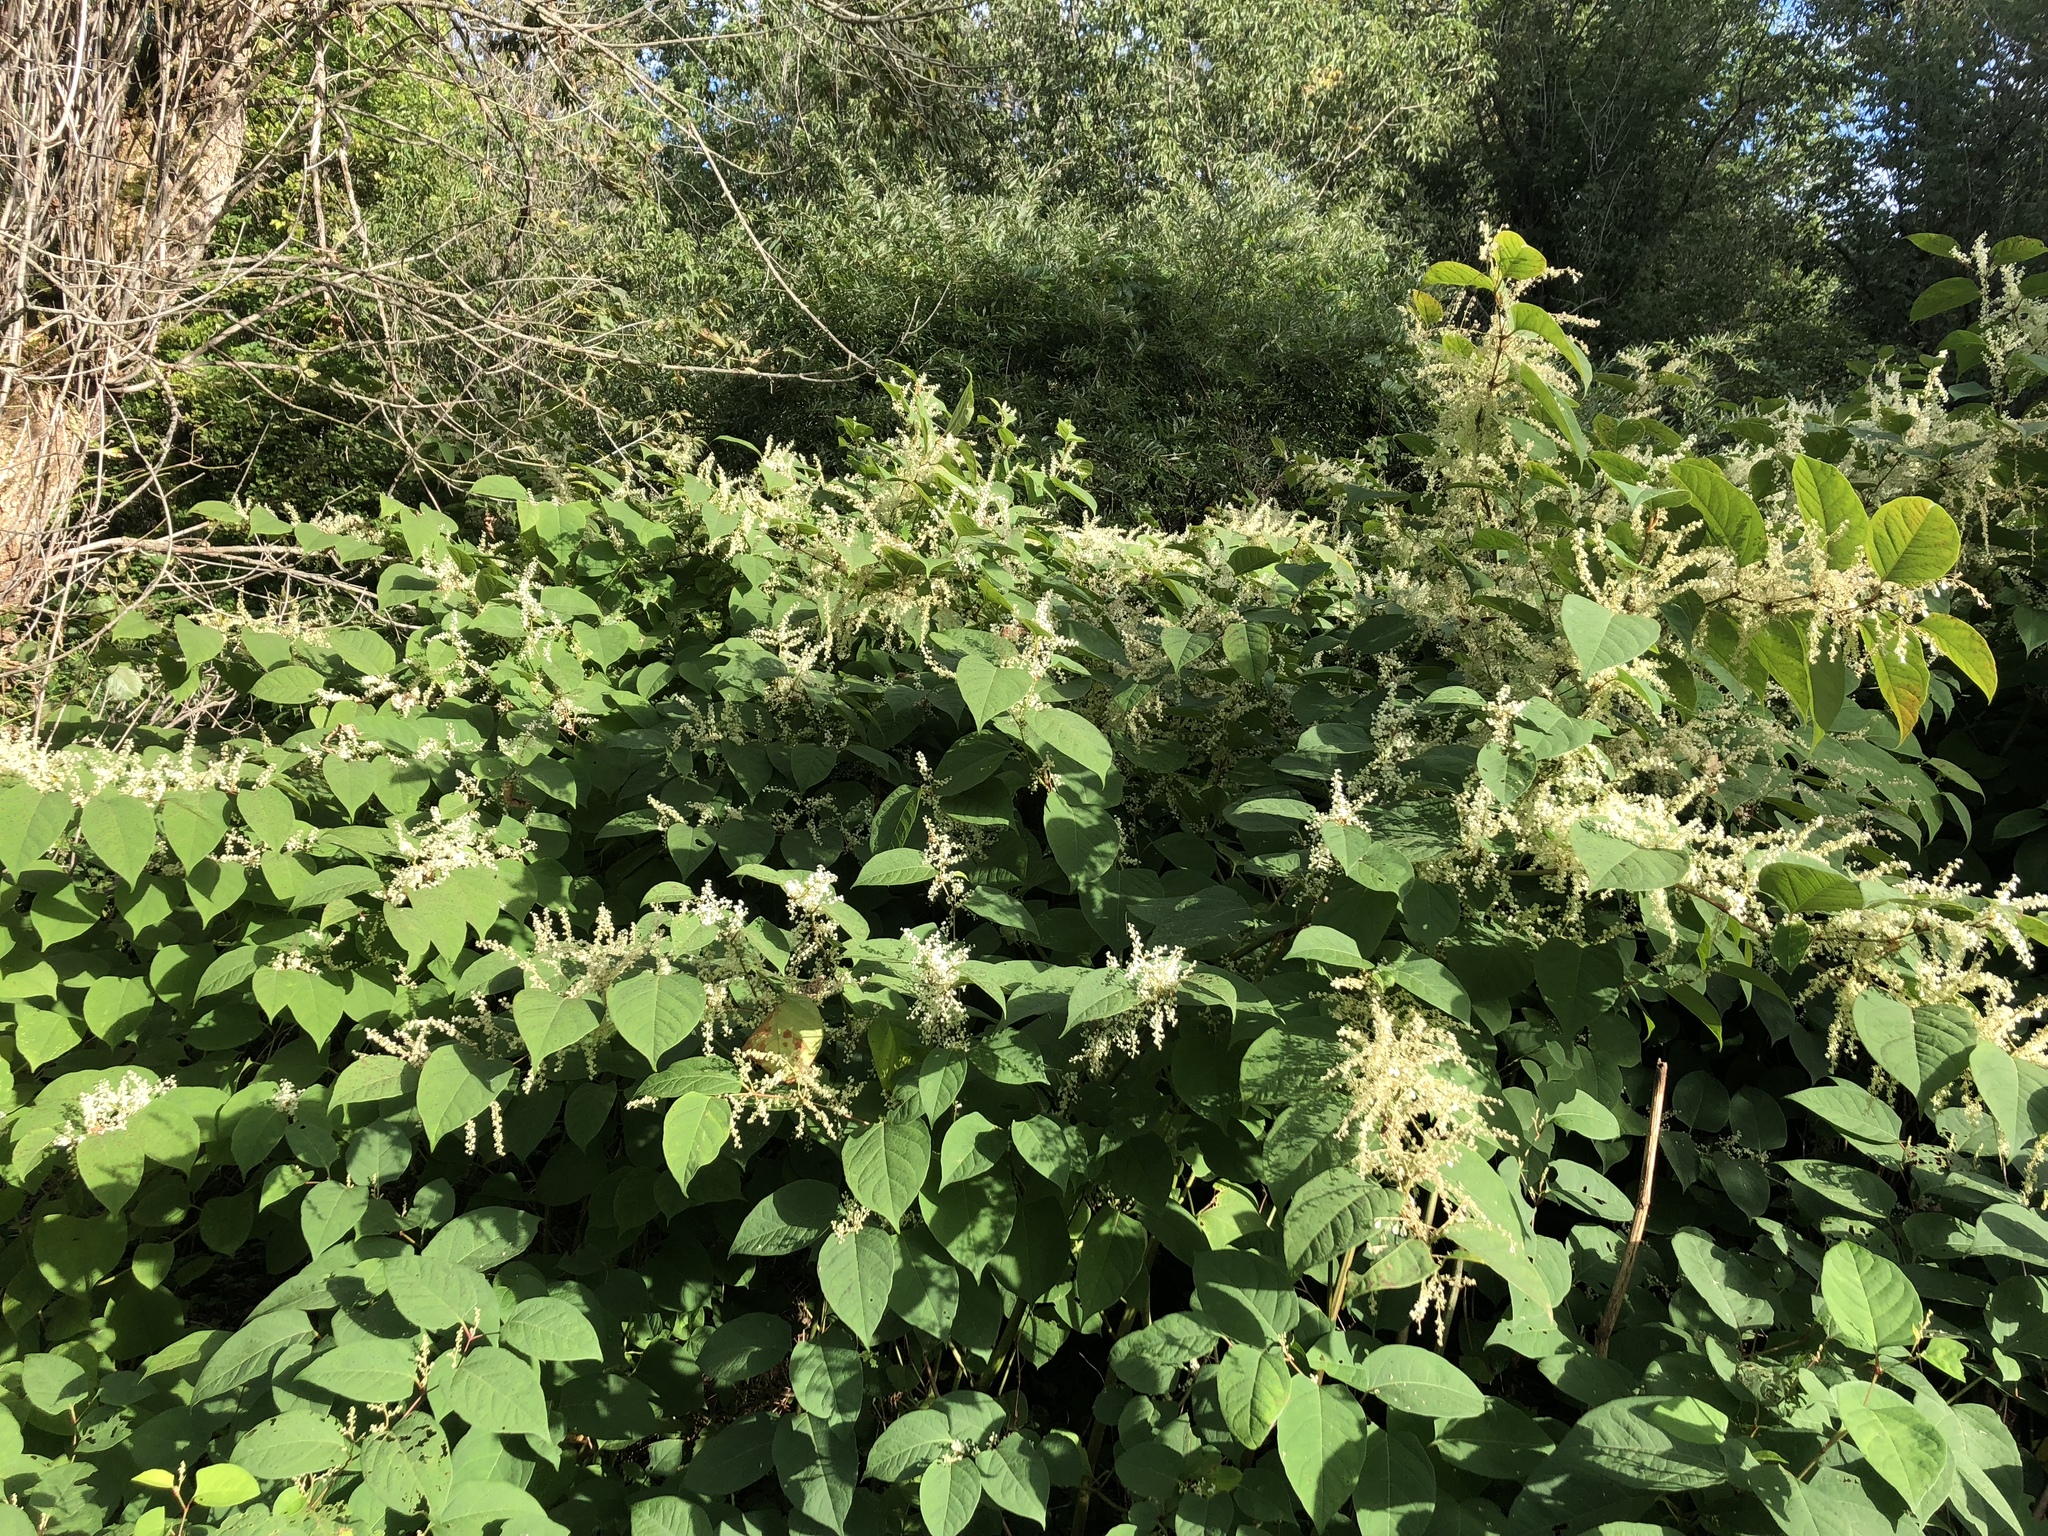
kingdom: Plantae
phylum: Tracheophyta
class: Magnoliopsida
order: Caryophyllales
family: Polygonaceae
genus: Reynoutria
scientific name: Reynoutria japonica
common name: Japanese knotweed
